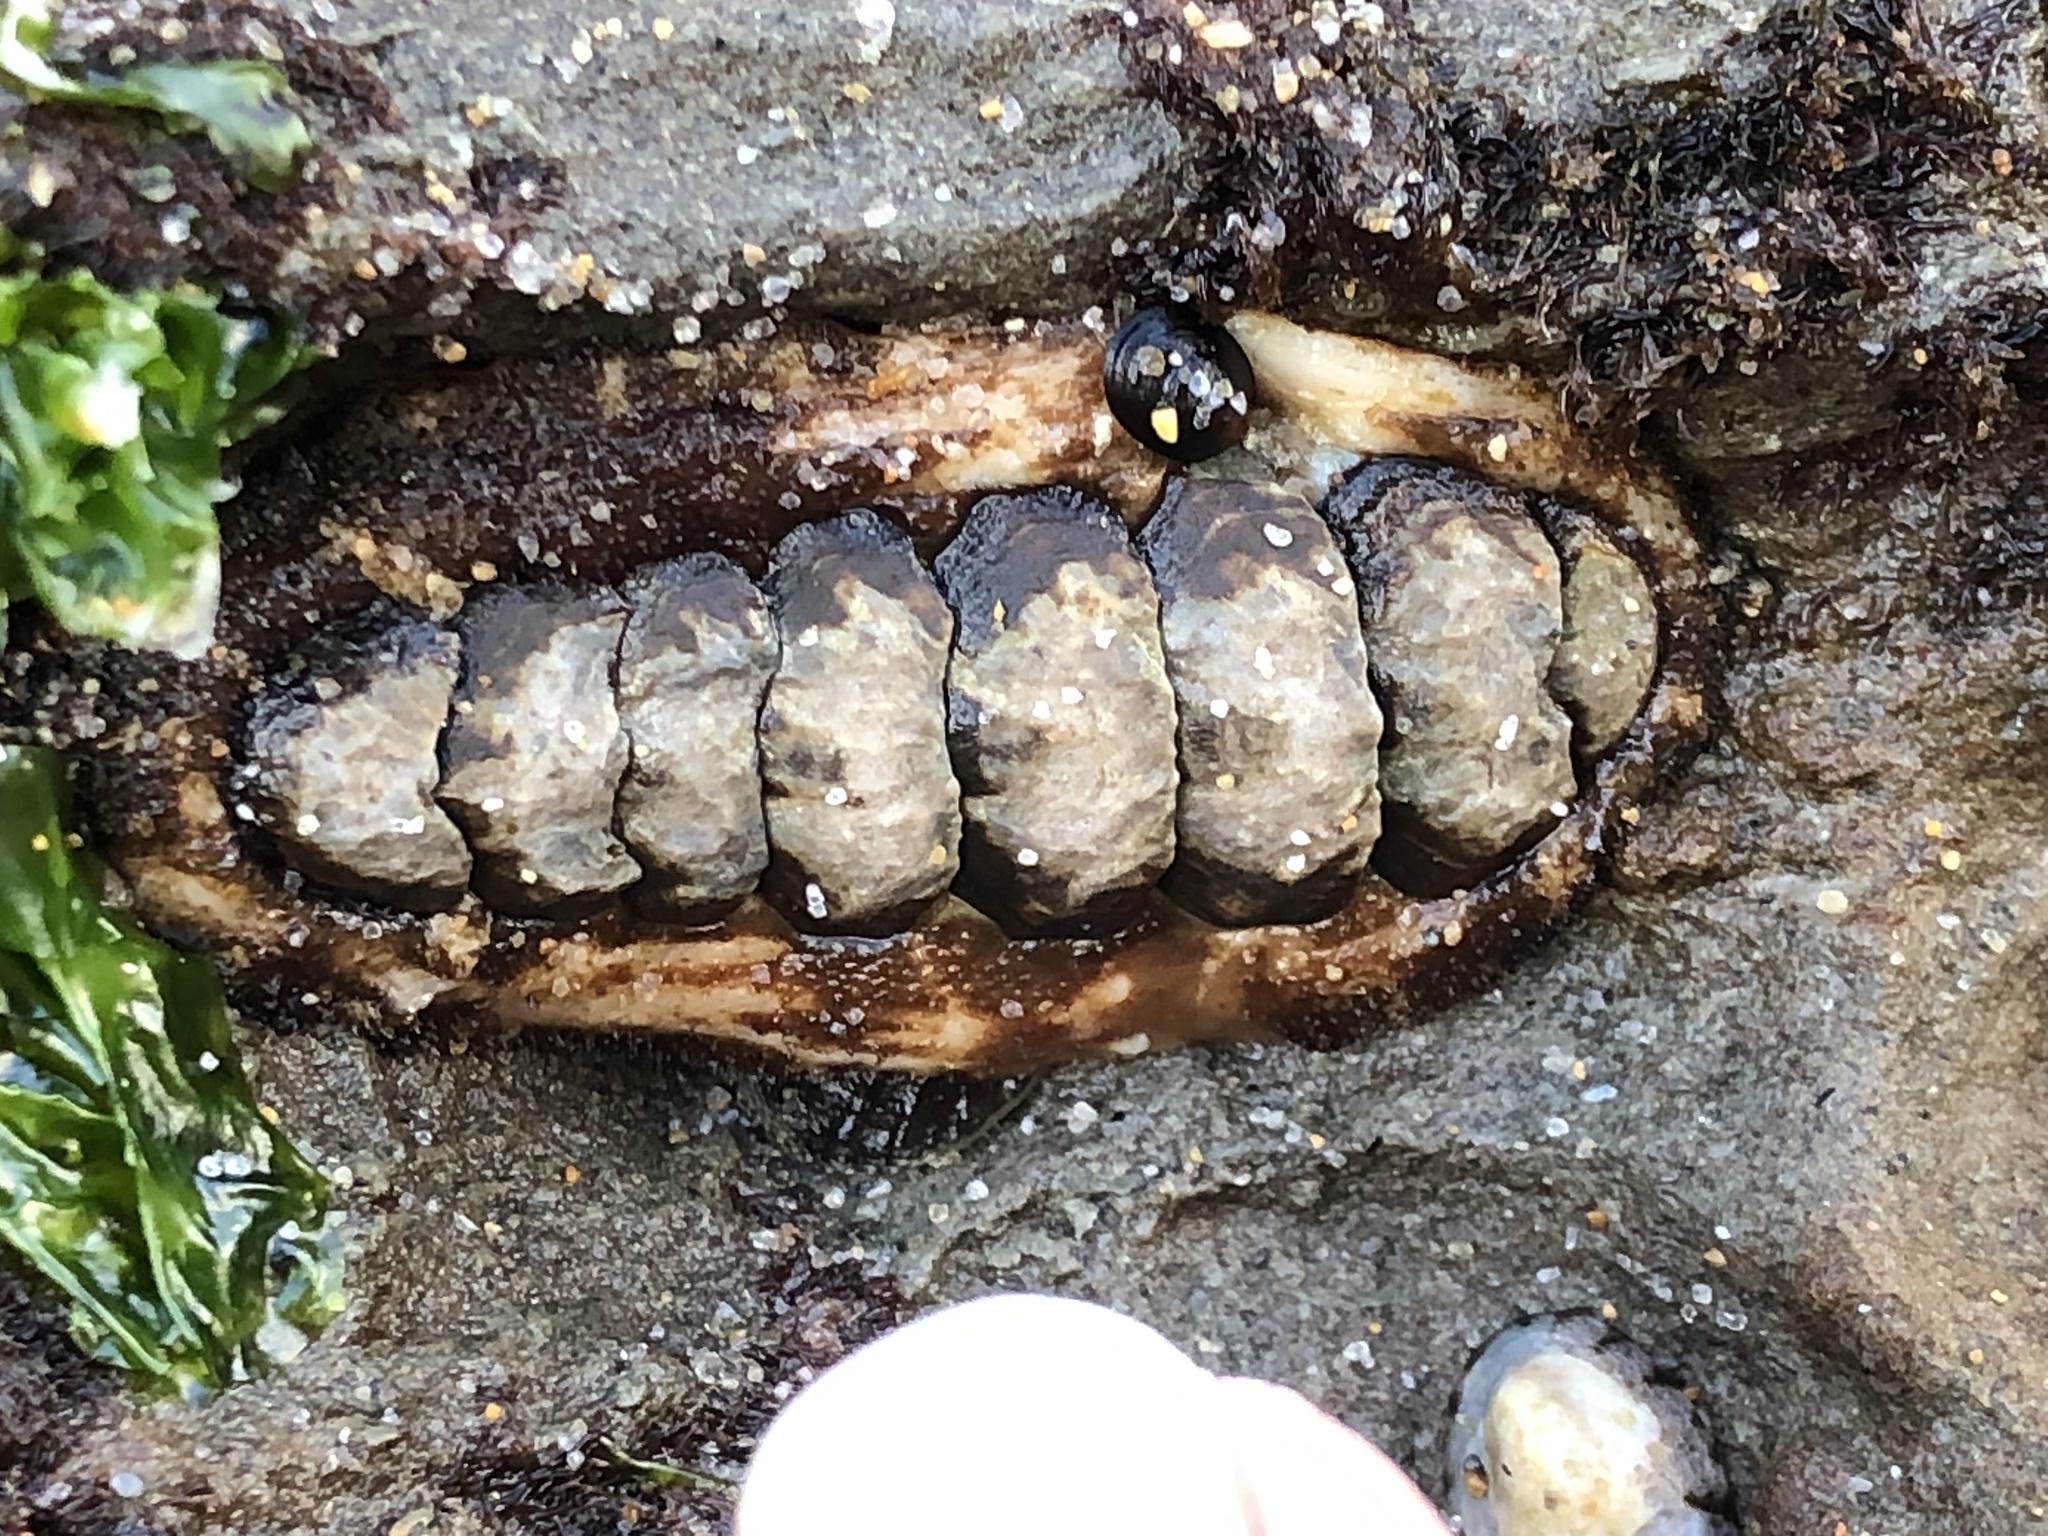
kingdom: Animalia
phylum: Mollusca
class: Polyplacophora
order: Chitonida
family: Tonicellidae
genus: Nuttallina
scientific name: Nuttallina californica
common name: California nuttall chiton
